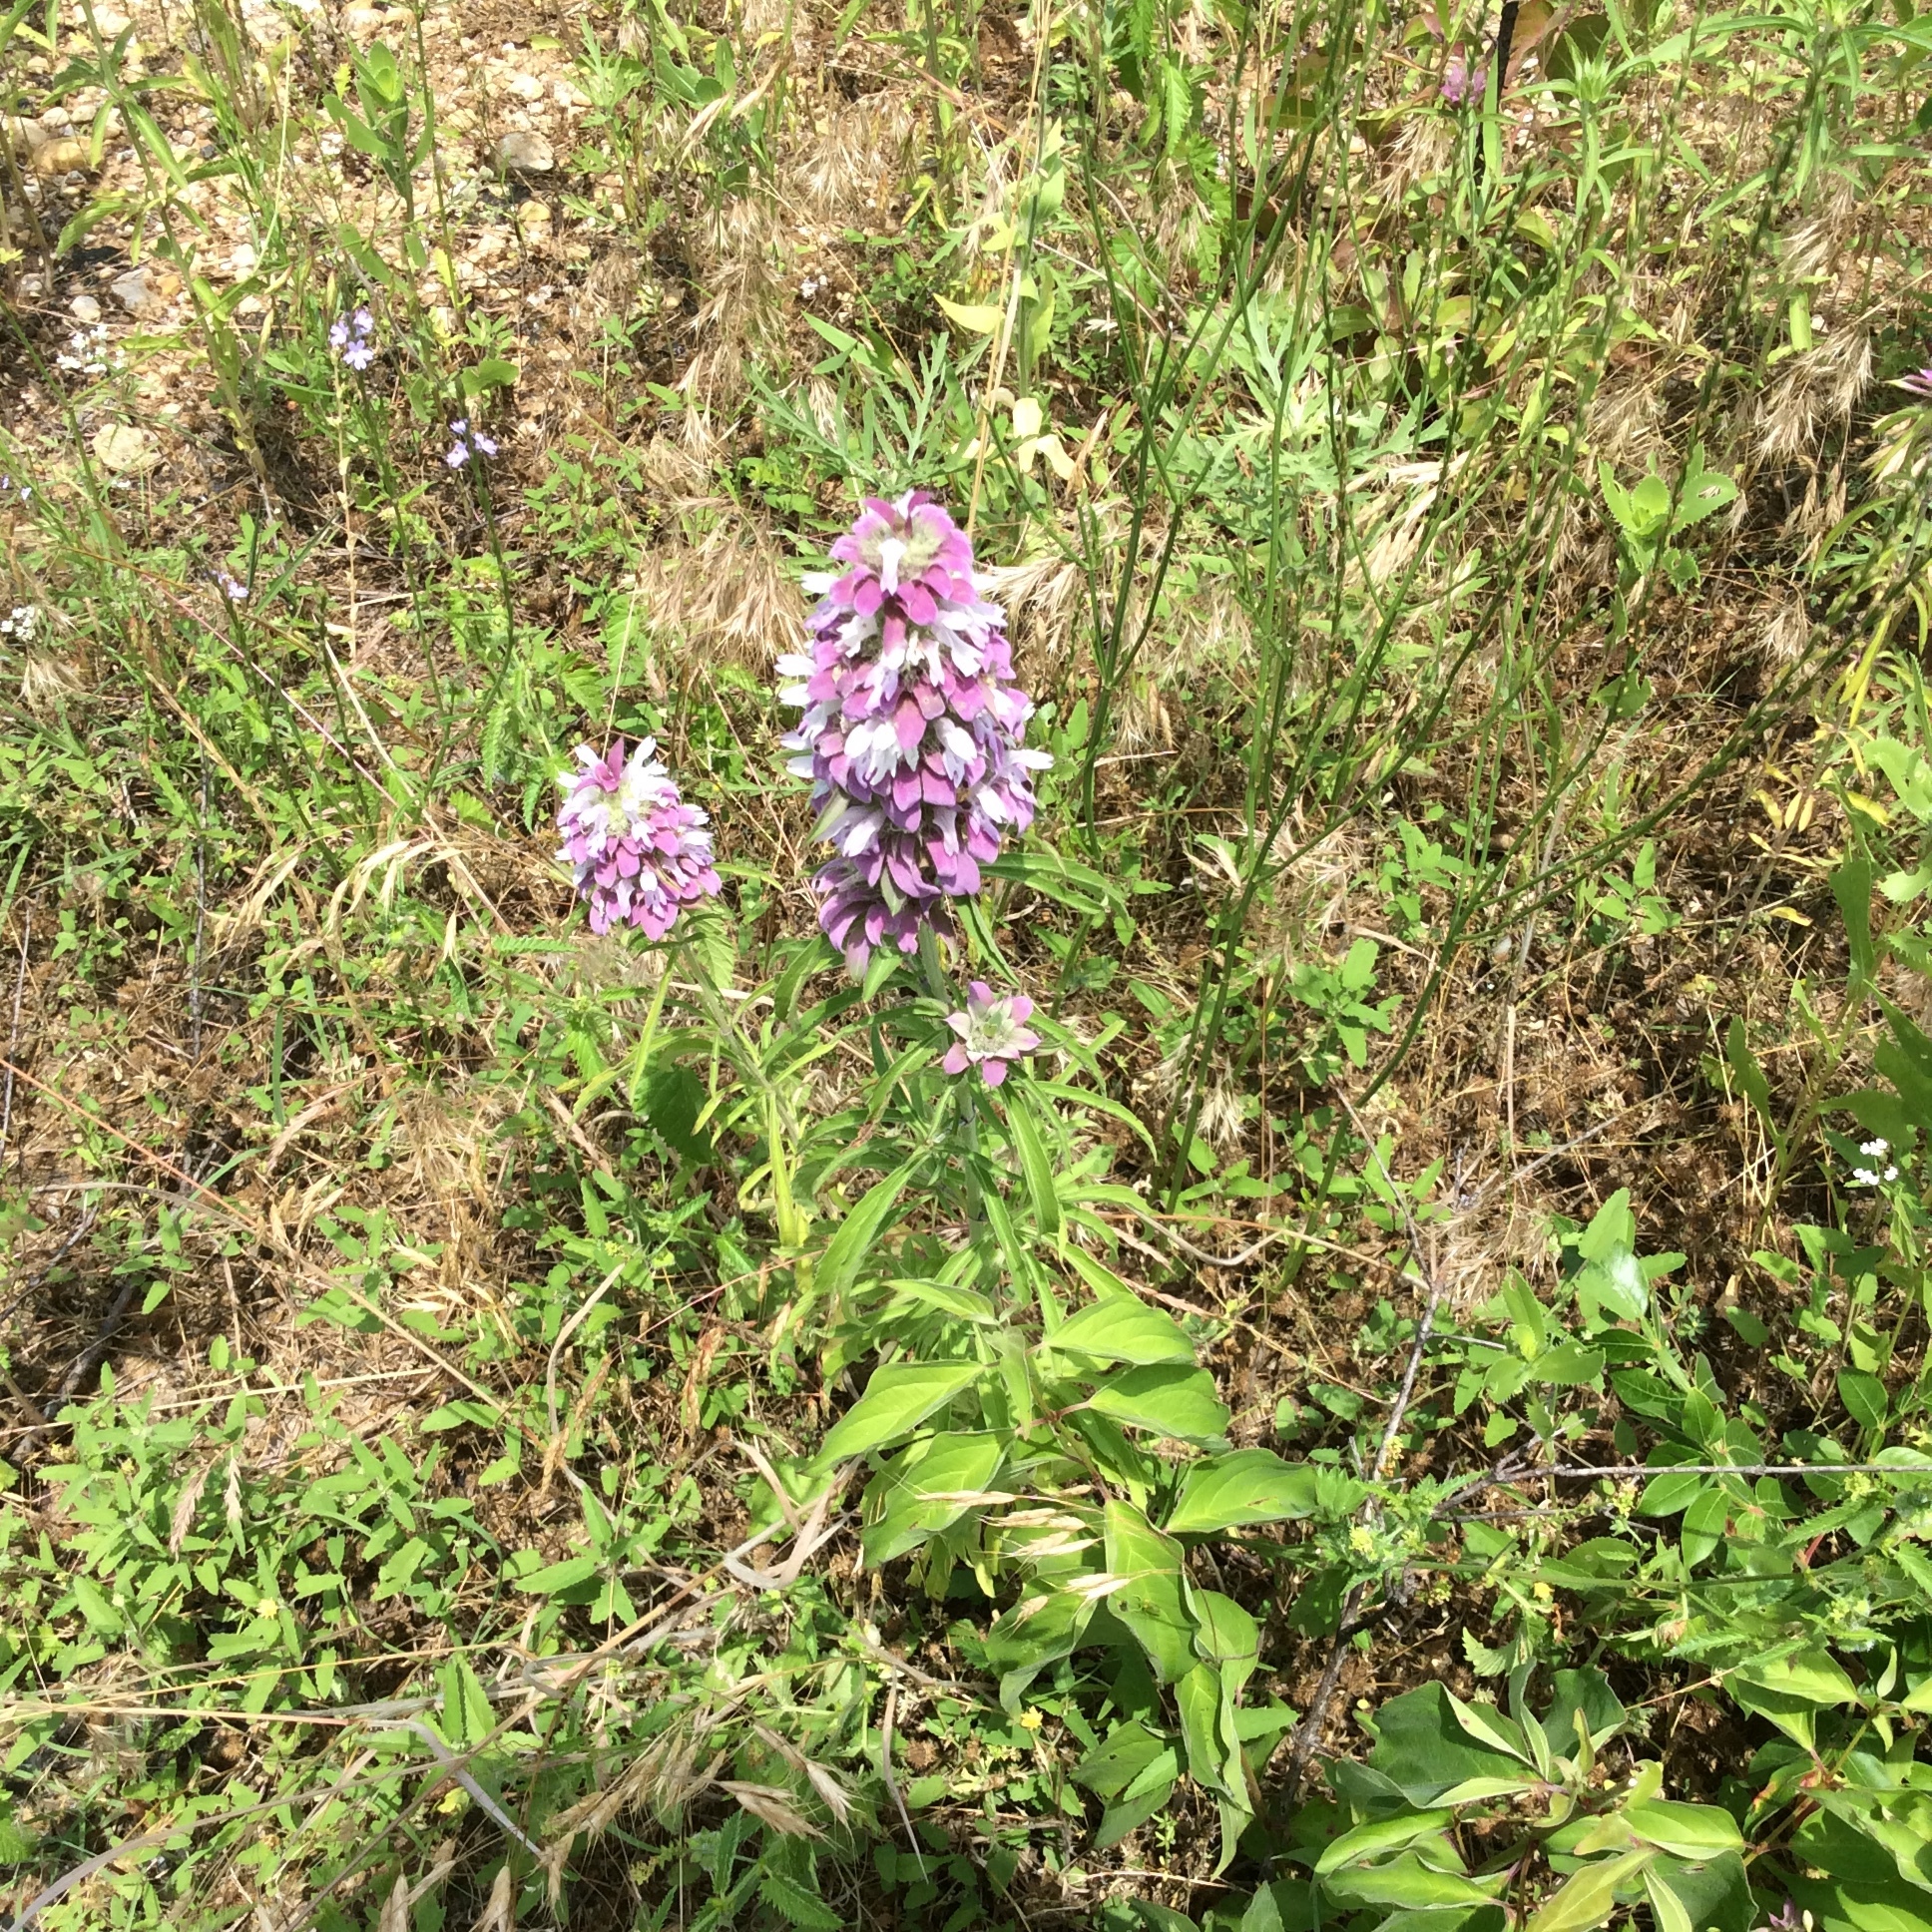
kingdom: Plantae
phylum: Tracheophyta
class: Magnoliopsida
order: Lamiales
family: Lamiaceae
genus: Monarda
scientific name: Monarda citriodora
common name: Lemon beebalm
